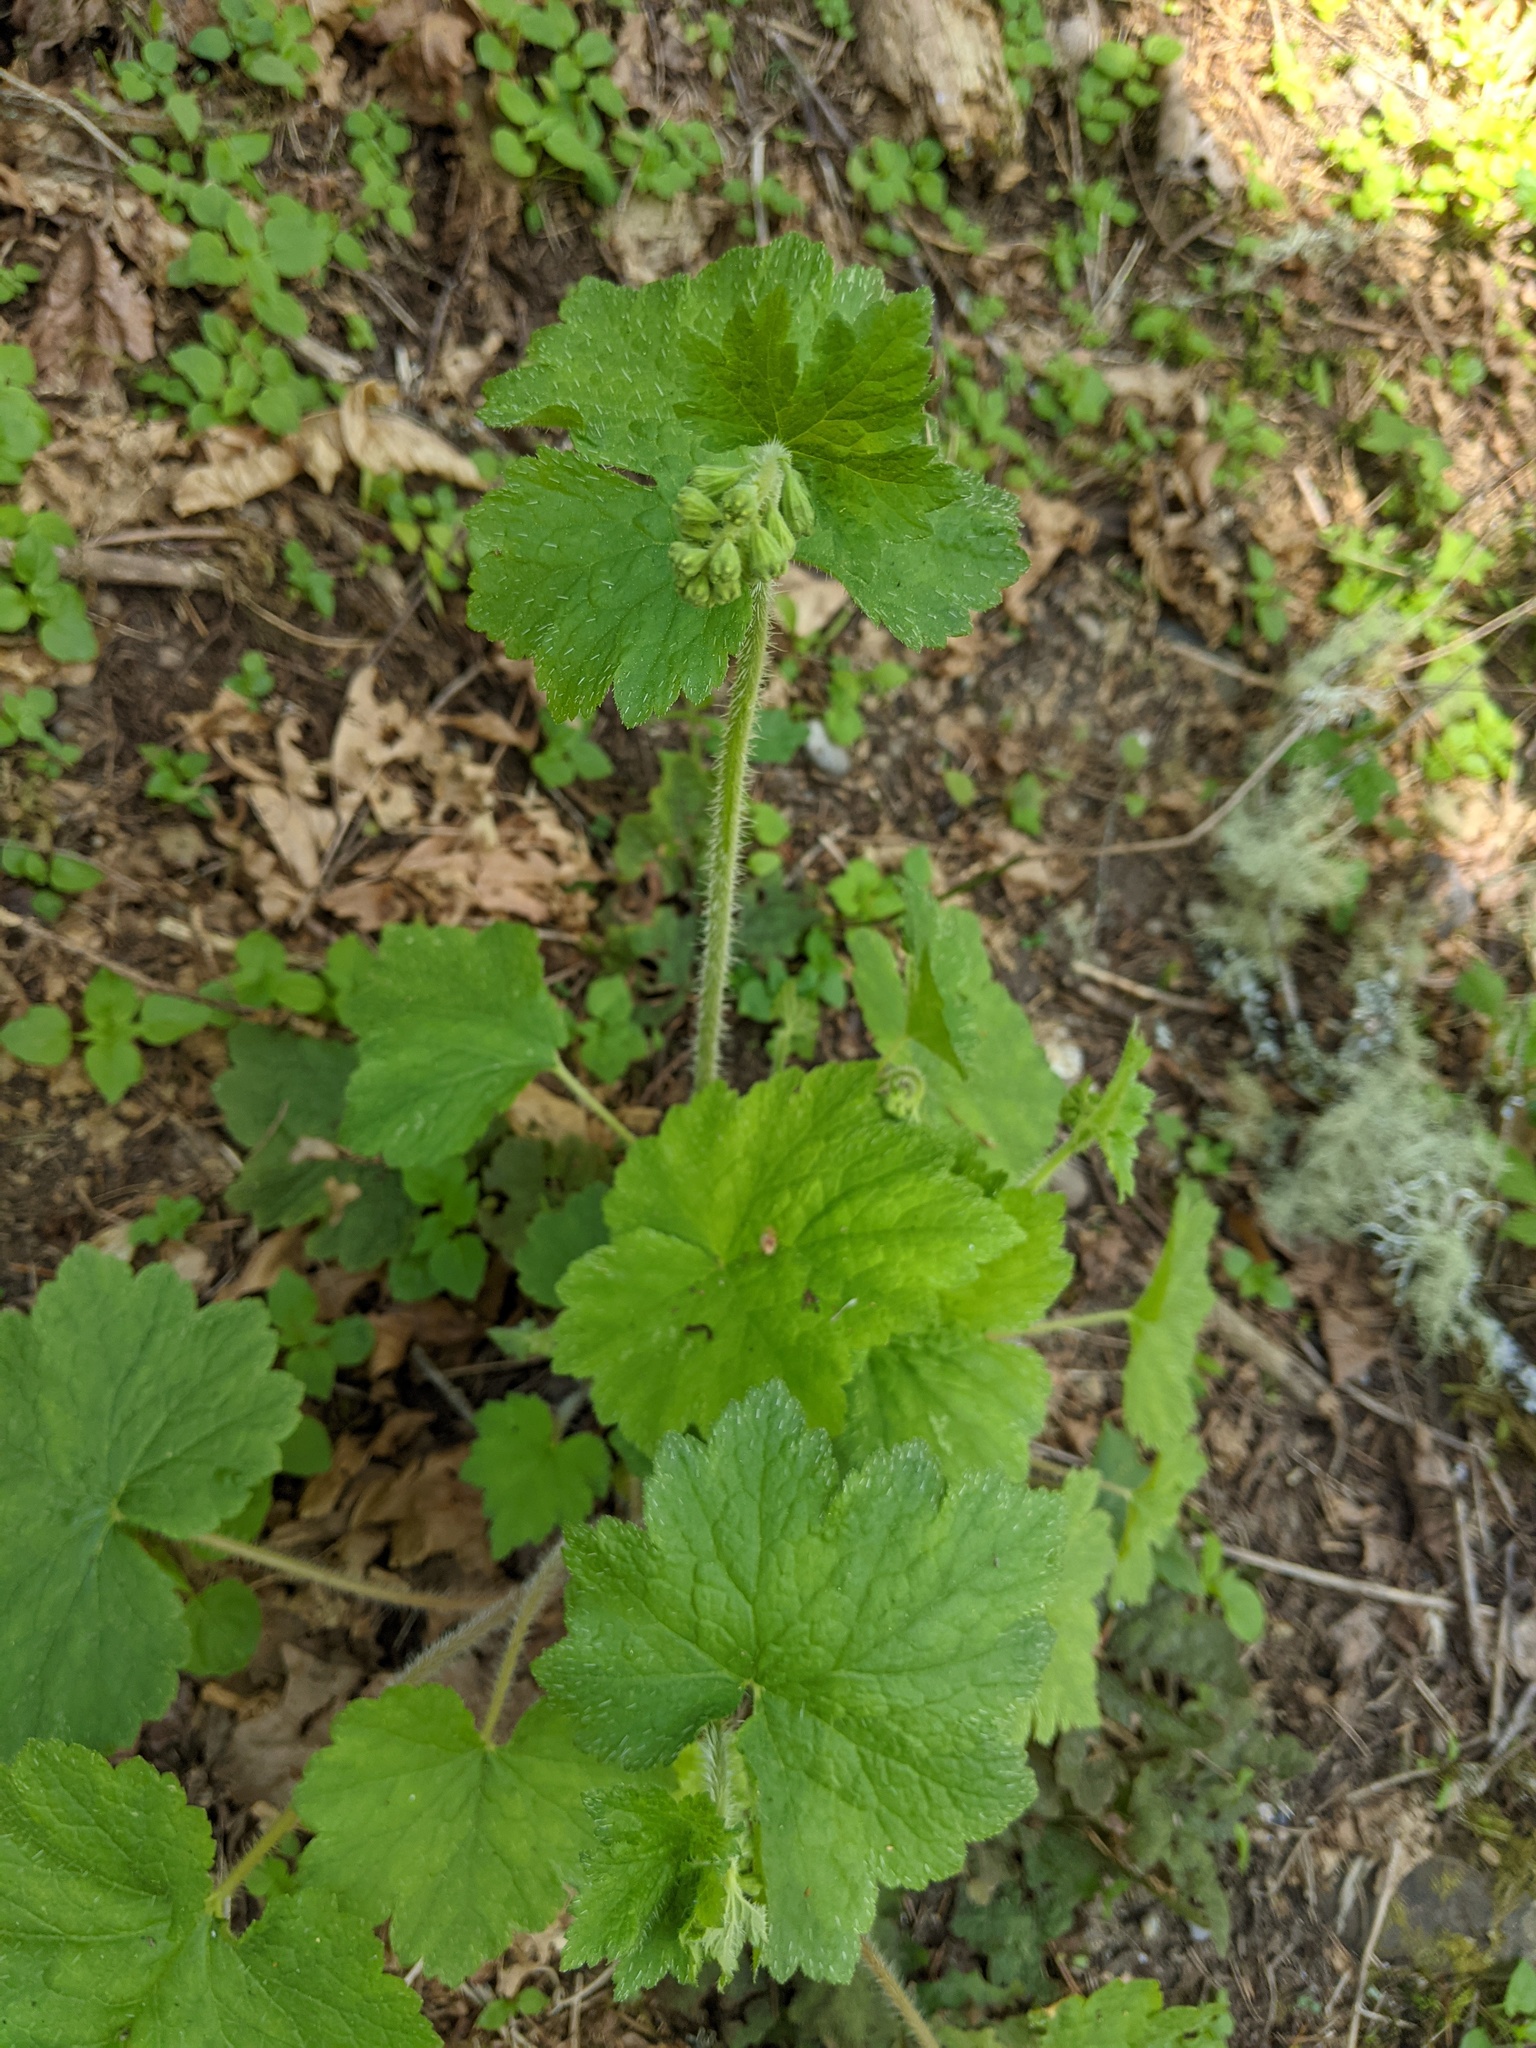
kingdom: Plantae
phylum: Tracheophyta
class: Magnoliopsida
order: Saxifragales
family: Saxifragaceae
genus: Tellima
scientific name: Tellima grandiflora
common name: Fringecups
